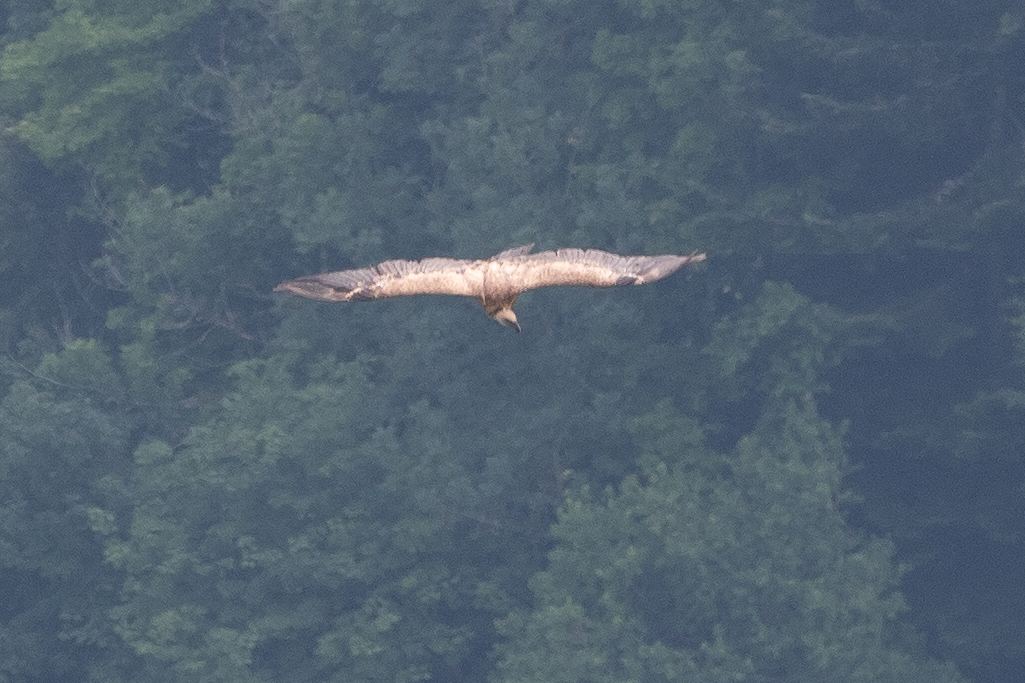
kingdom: Animalia
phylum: Chordata
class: Aves
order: Accipitriformes
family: Accipitridae
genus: Gyps
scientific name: Gyps fulvus
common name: Griffon vulture
